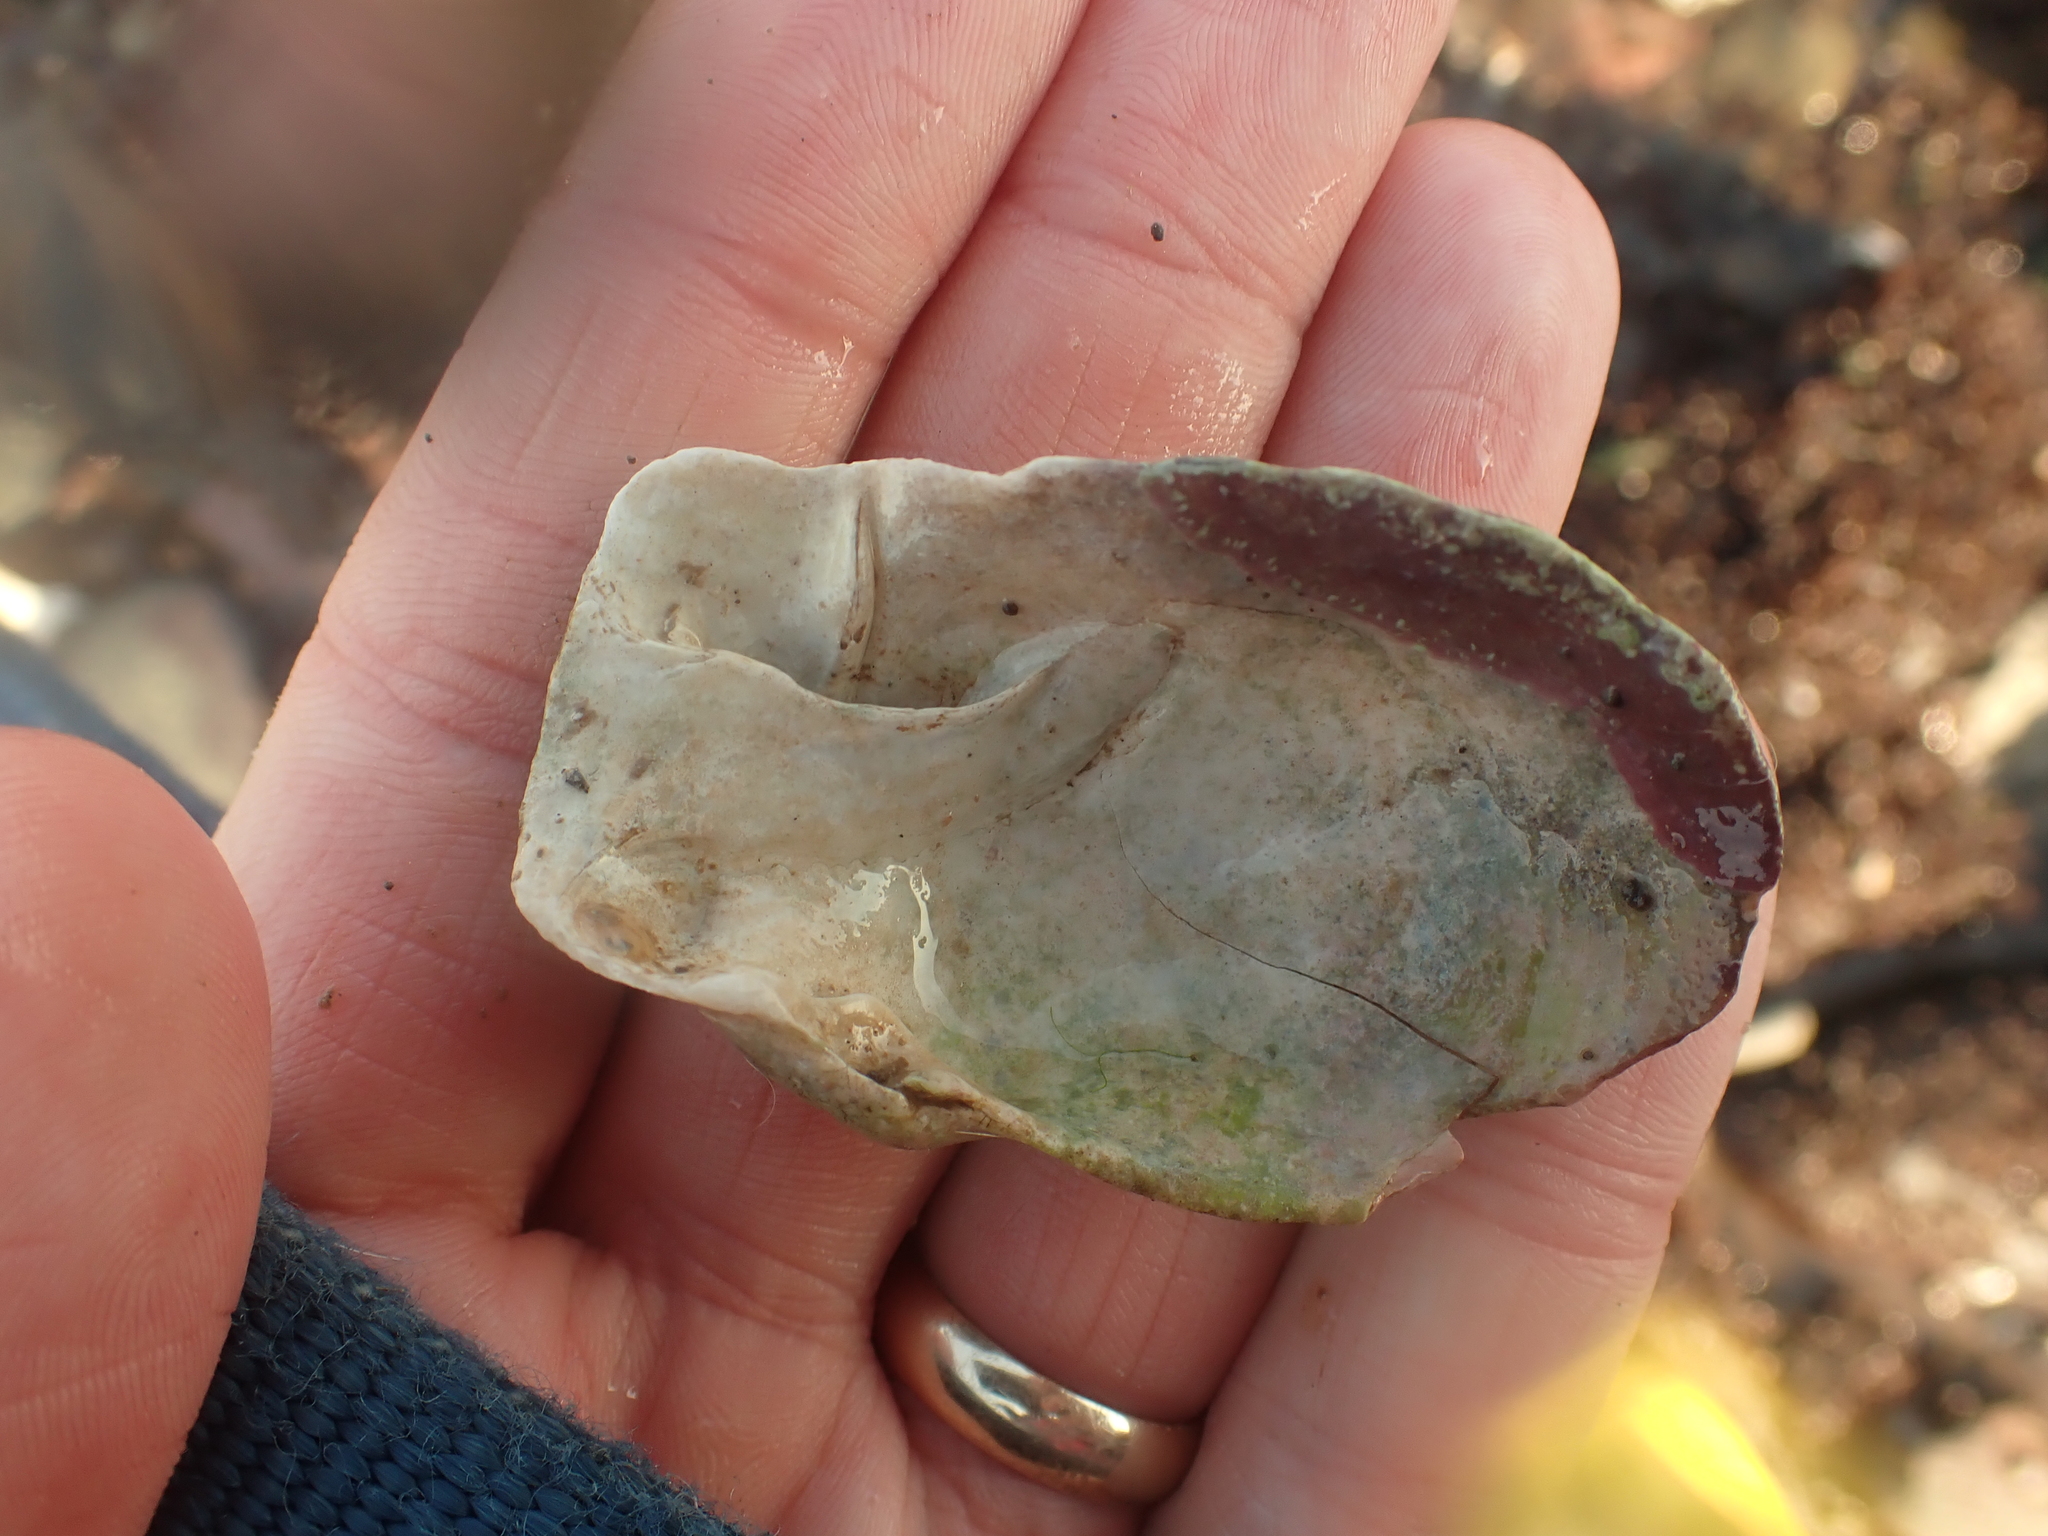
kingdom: Animalia
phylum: Mollusca
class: Bivalvia
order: Myida
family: Myidae
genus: Mya
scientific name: Mya truncata
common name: Blunt gaper
